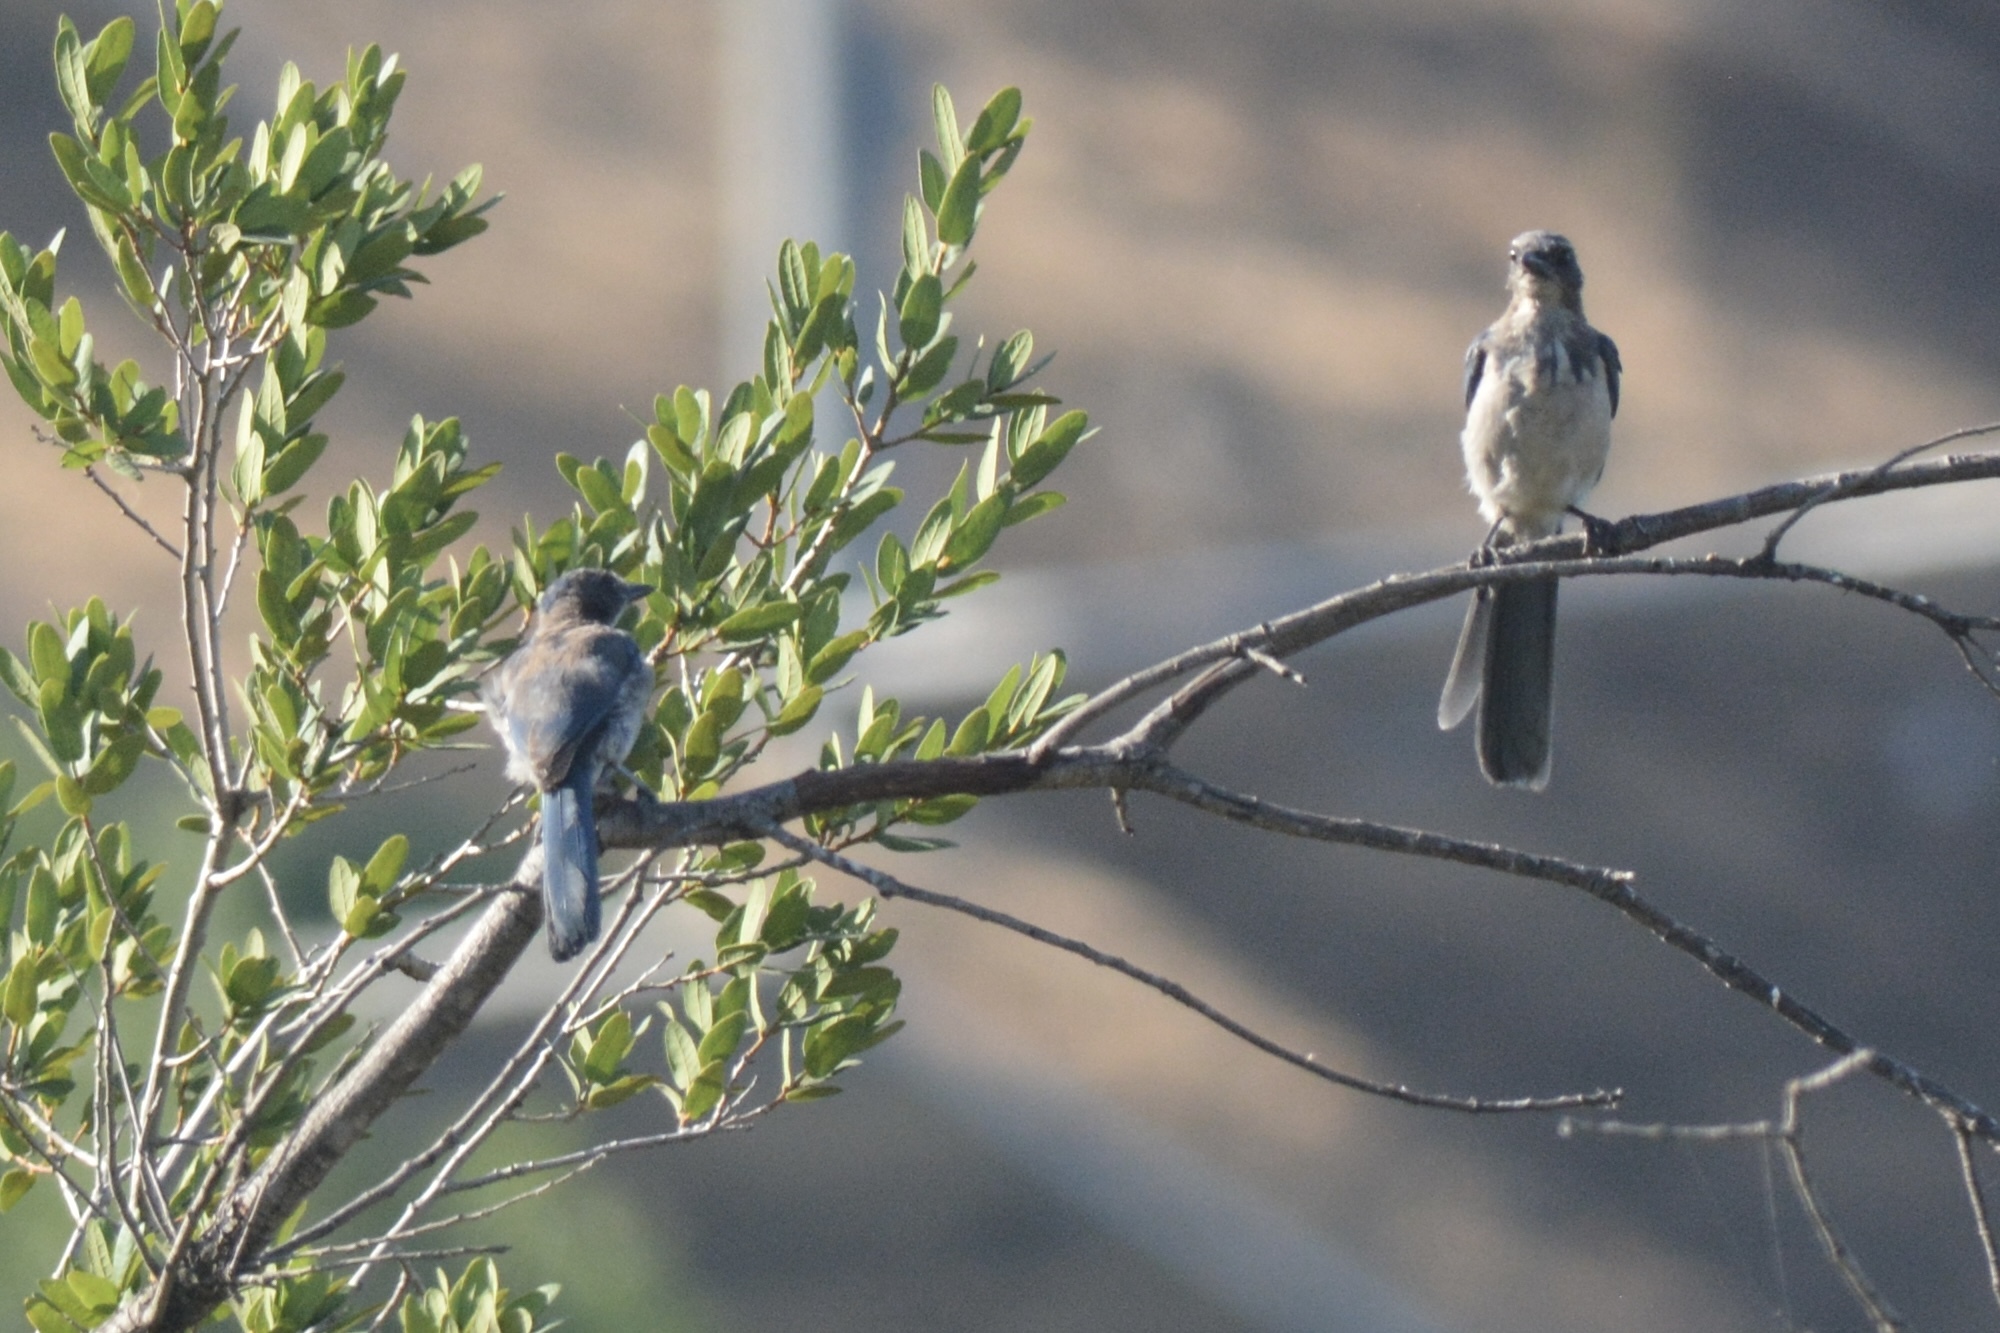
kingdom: Animalia
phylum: Chordata
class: Aves
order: Passeriformes
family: Corvidae
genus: Aphelocoma
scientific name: Aphelocoma californica
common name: California scrub-jay
